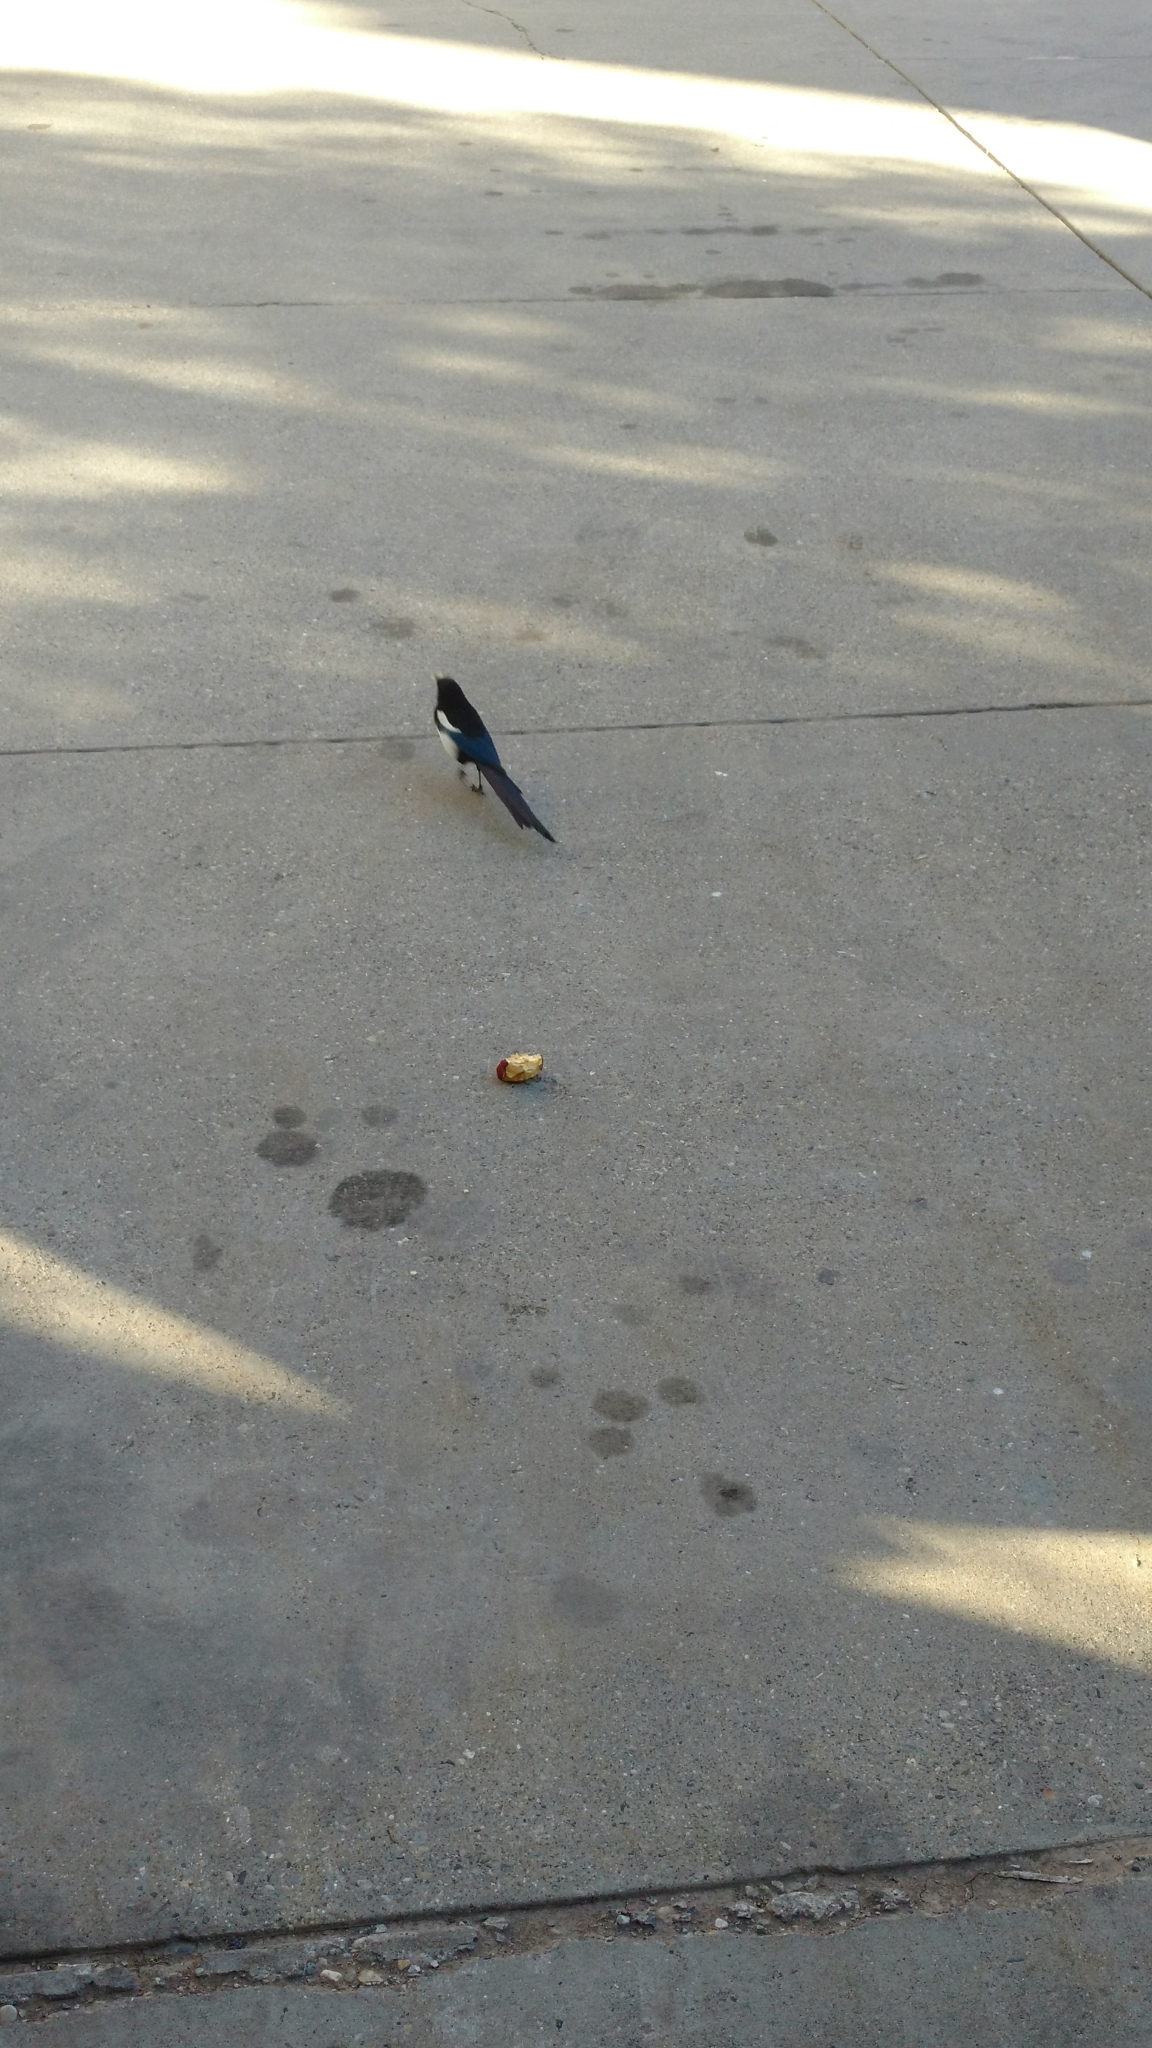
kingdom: Animalia
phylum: Chordata
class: Aves
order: Passeriformes
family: Corvidae
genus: Pica
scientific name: Pica hudsonia
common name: Black-billed magpie
